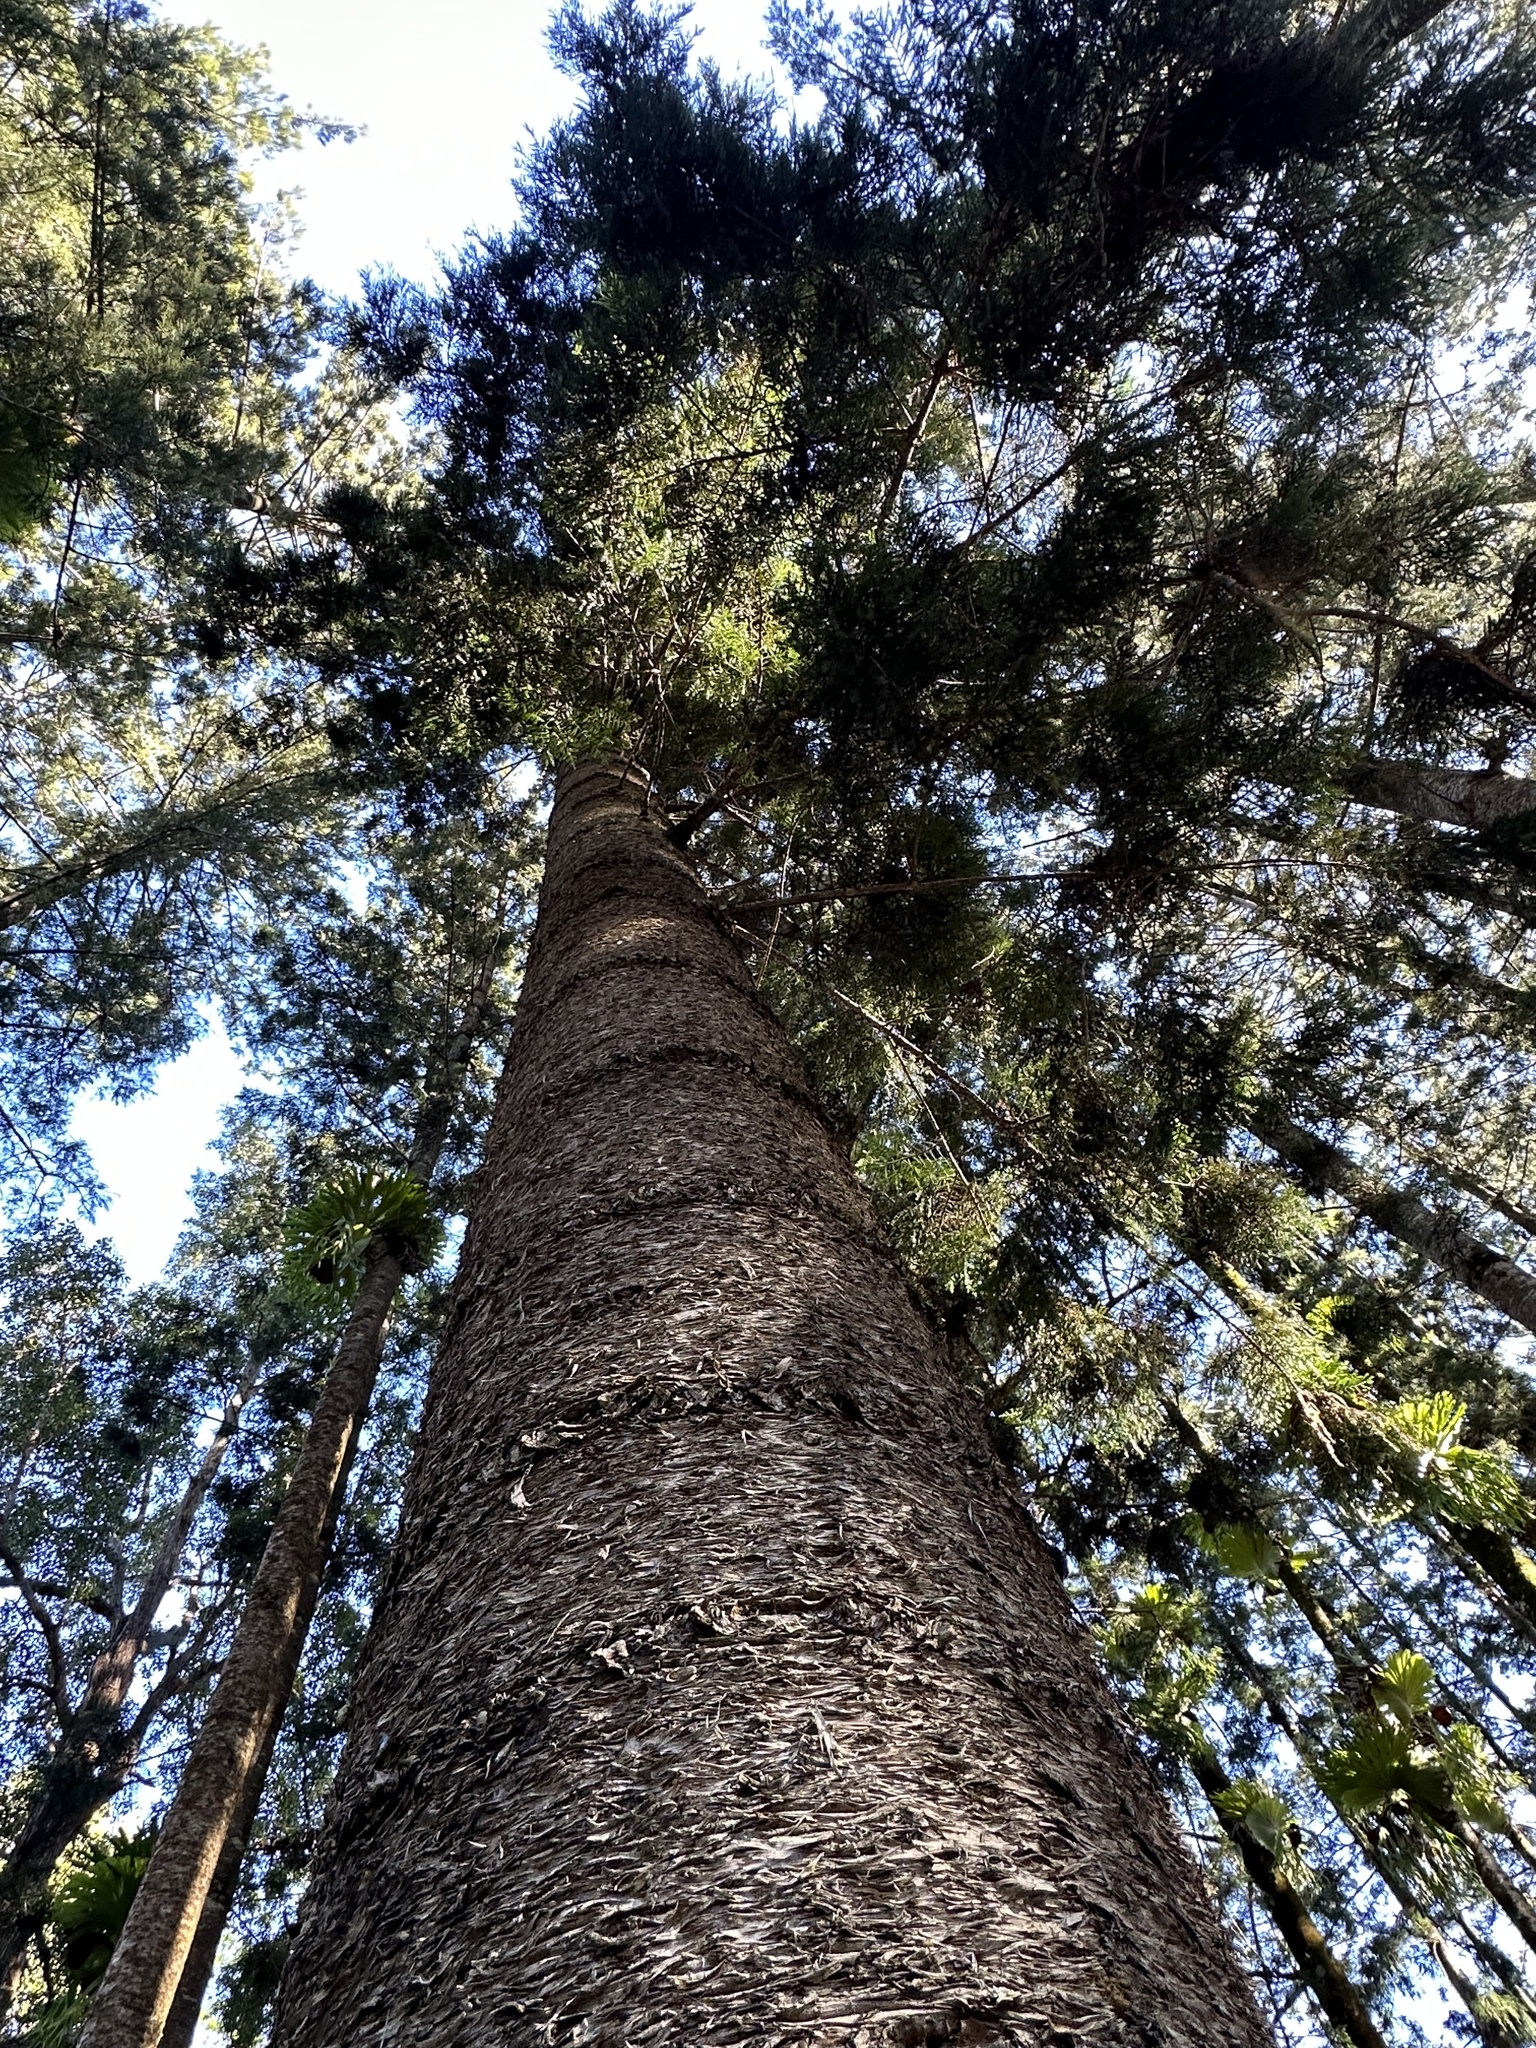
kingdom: Plantae
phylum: Tracheophyta
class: Pinopsida
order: Pinales
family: Araucariaceae
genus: Araucaria
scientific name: Araucaria cunninghamii
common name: Colonial pine
